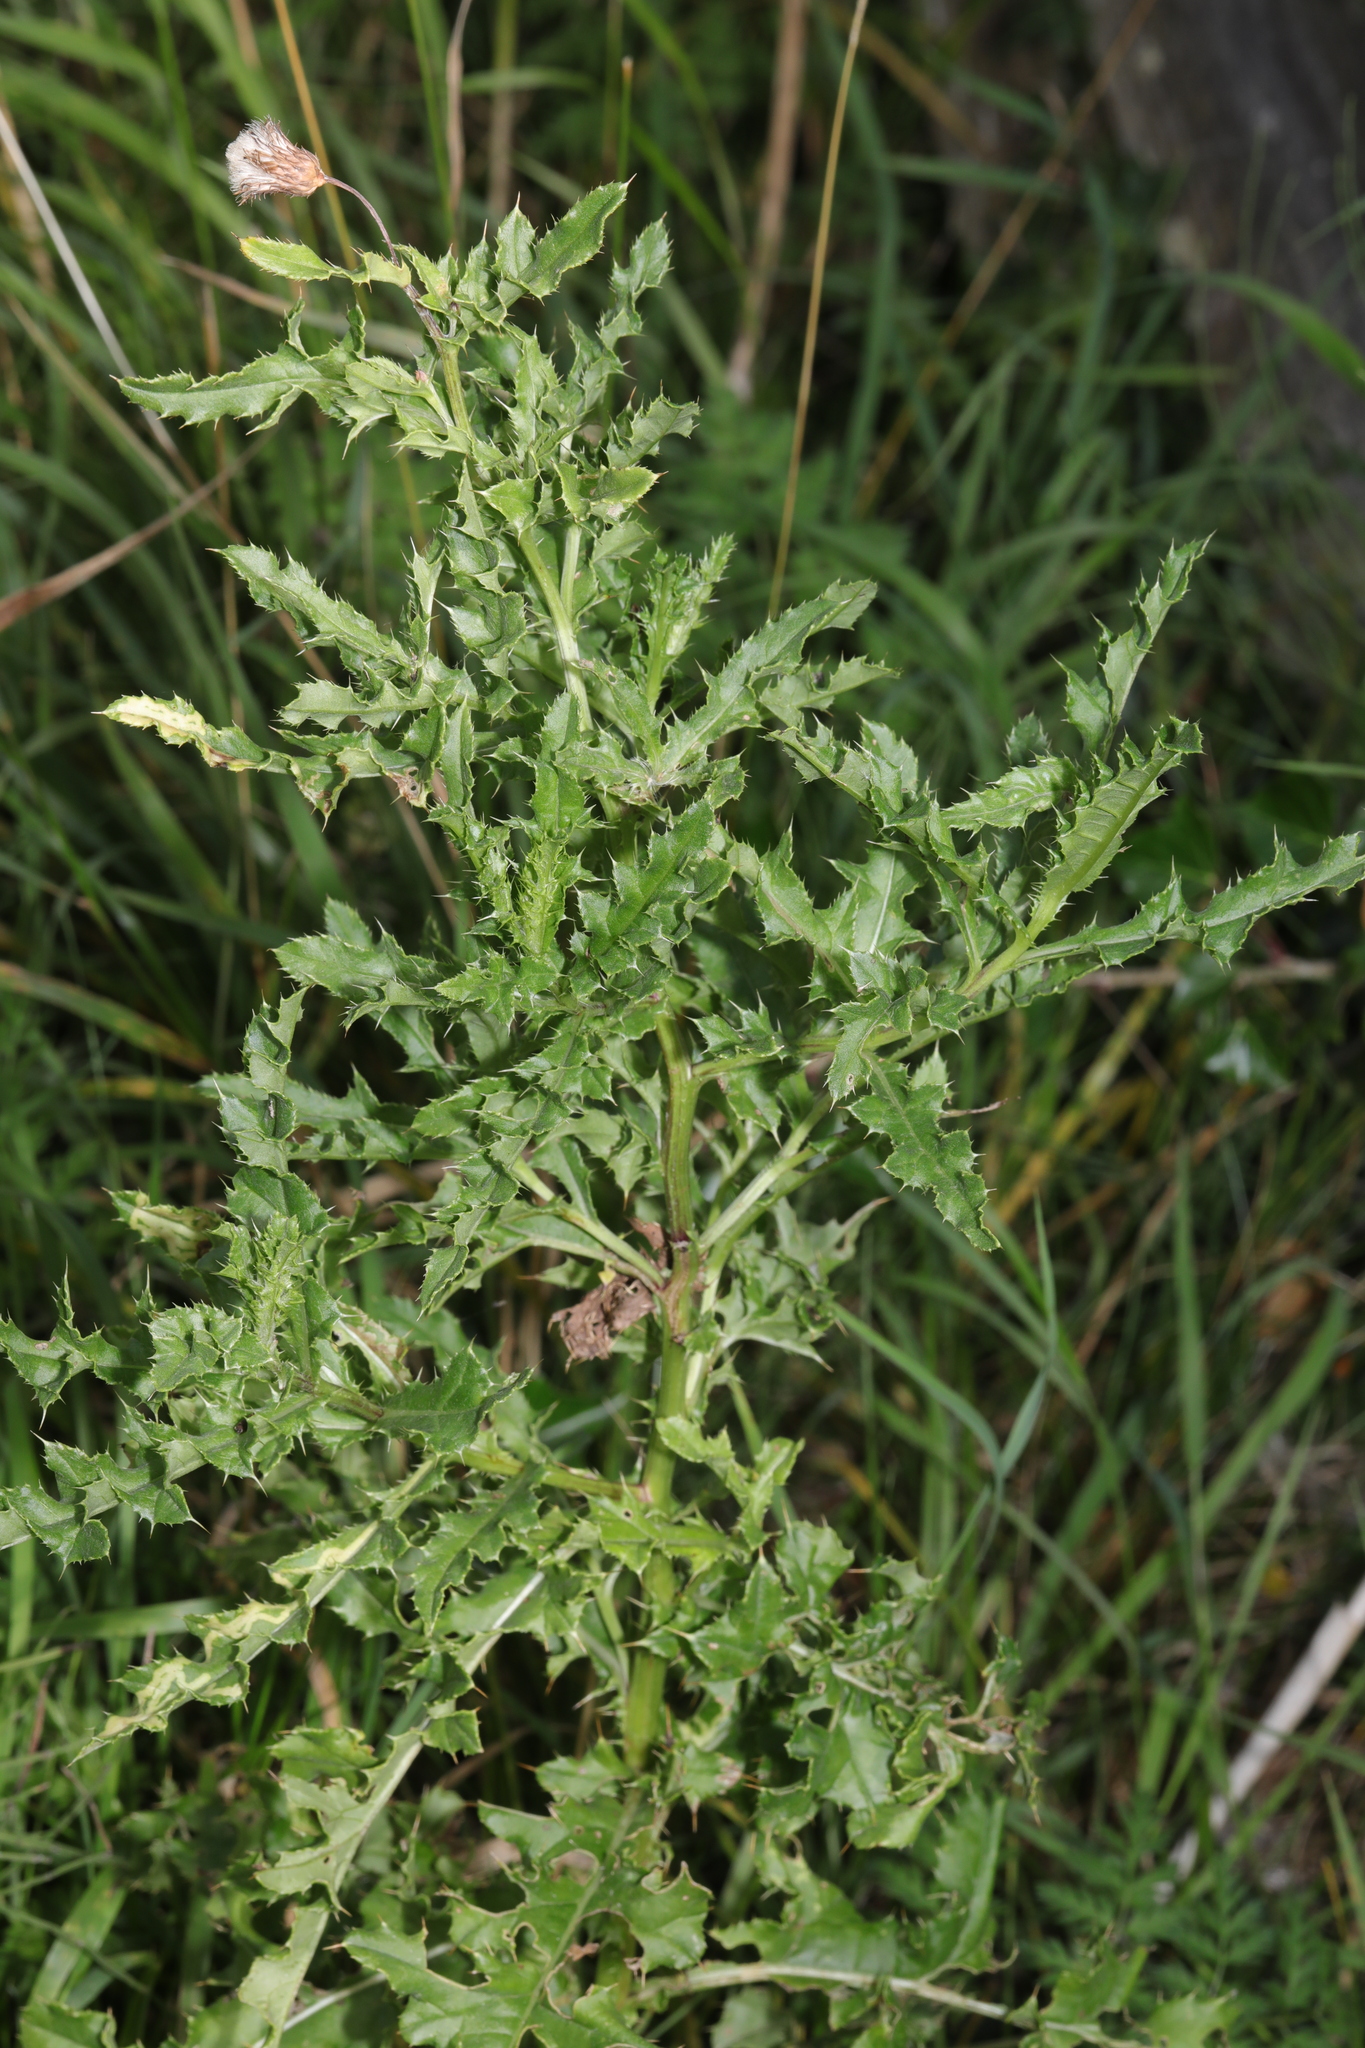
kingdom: Plantae
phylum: Tracheophyta
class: Magnoliopsida
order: Asterales
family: Asteraceae
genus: Cirsium
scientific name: Cirsium arvense
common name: Creeping thistle
